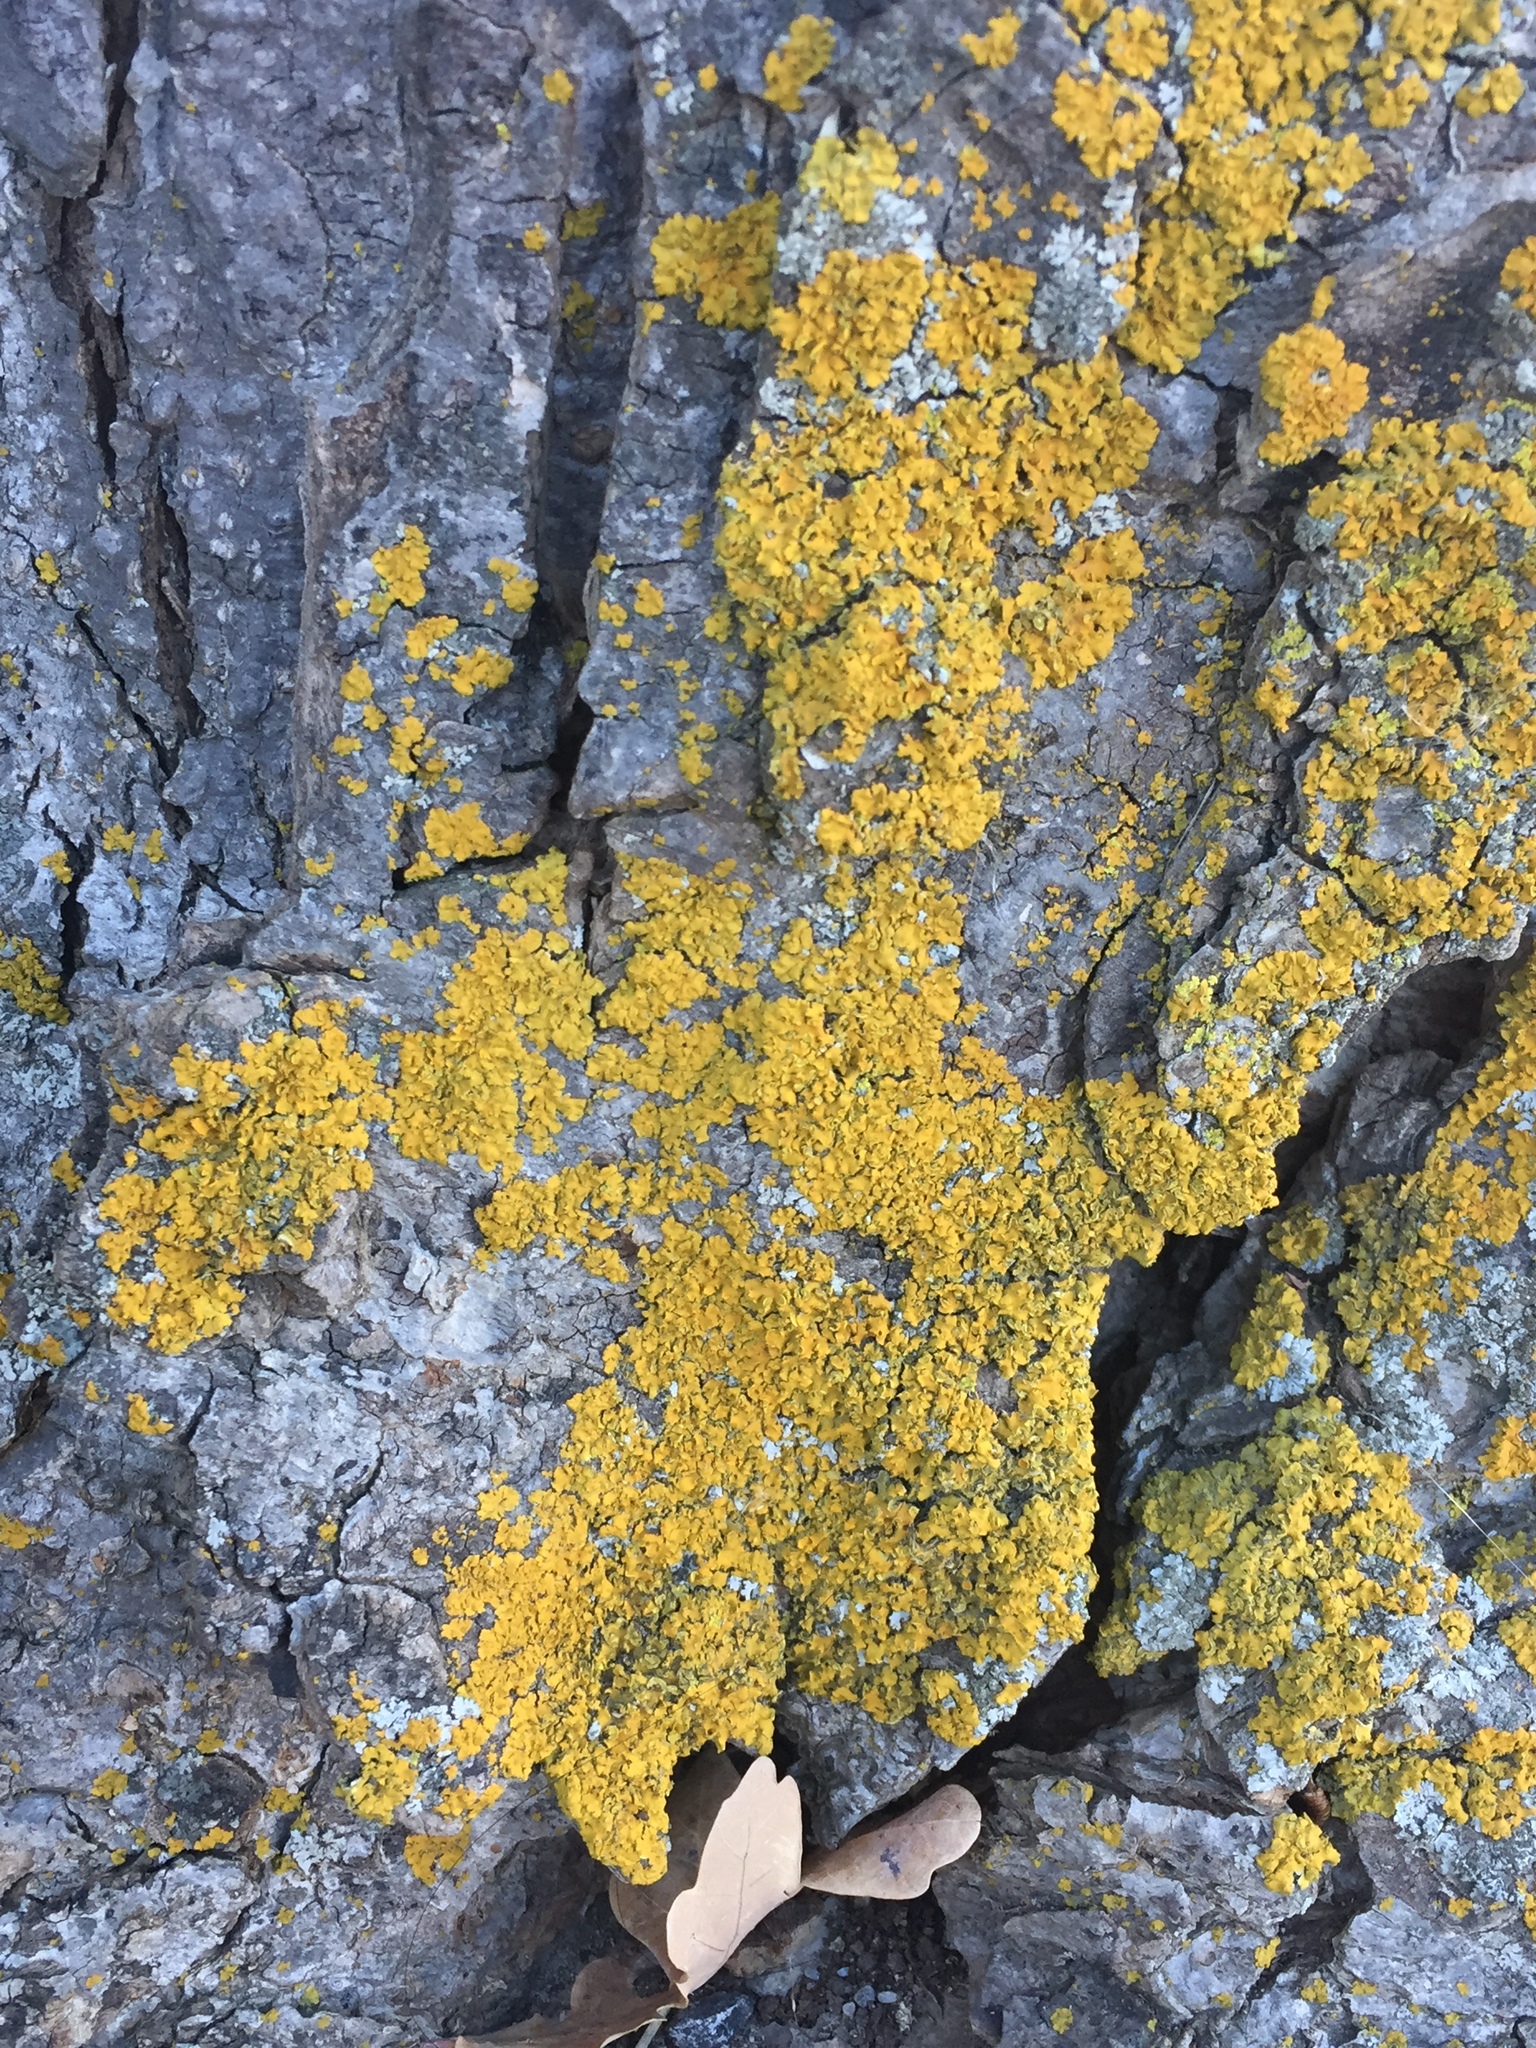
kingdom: Fungi
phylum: Ascomycota
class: Candelariomycetes
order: Candelariales
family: Candelariaceae
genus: Candelaria
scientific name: Candelaria concolor
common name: Candleflame lichen
